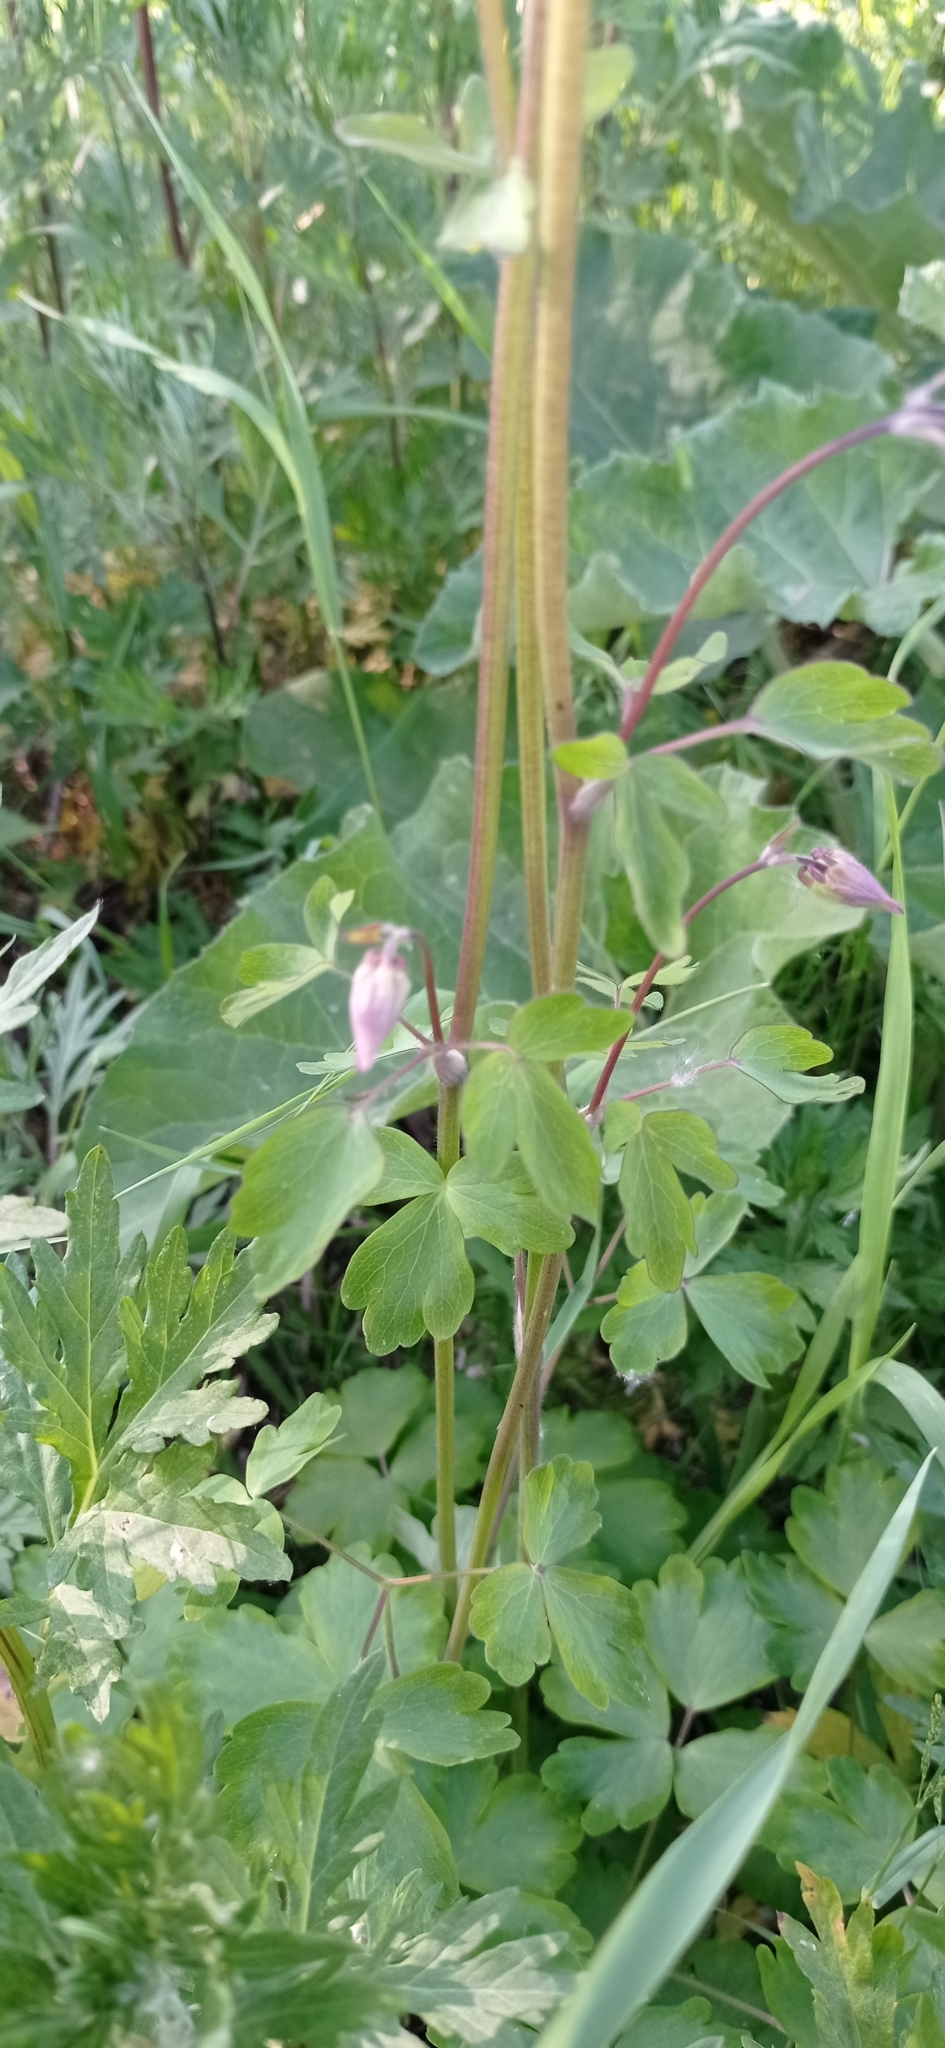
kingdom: Plantae
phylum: Tracheophyta
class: Magnoliopsida
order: Ranunculales
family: Ranunculaceae
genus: Aquilegia
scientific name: Aquilegia vulgaris
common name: Columbine
